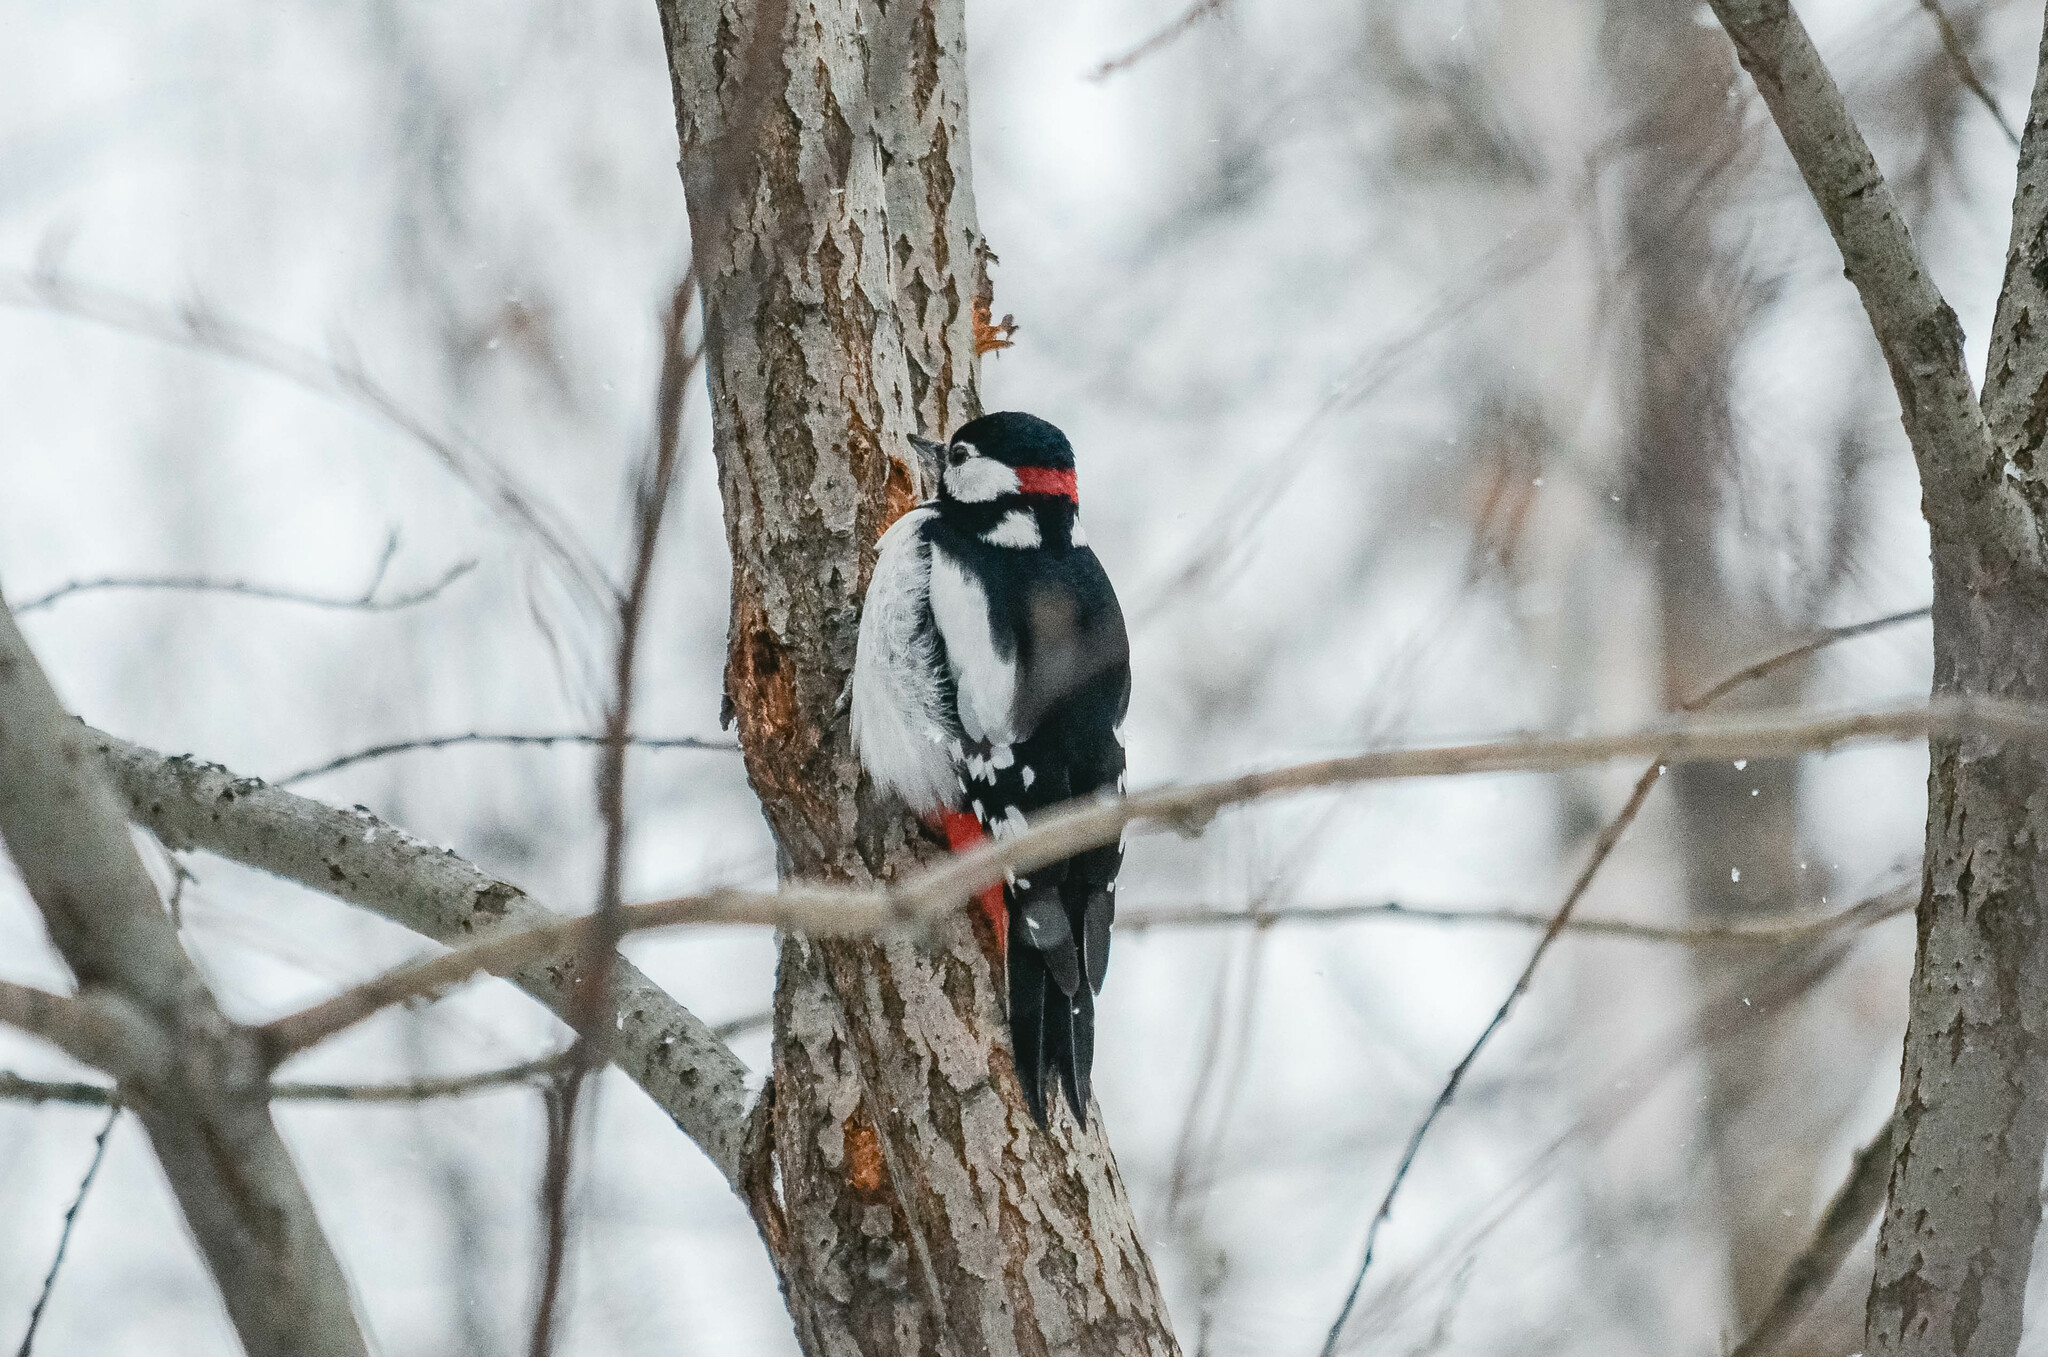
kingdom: Animalia
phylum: Chordata
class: Aves
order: Piciformes
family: Picidae
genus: Dendrocopos
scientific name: Dendrocopos major
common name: Great spotted woodpecker
